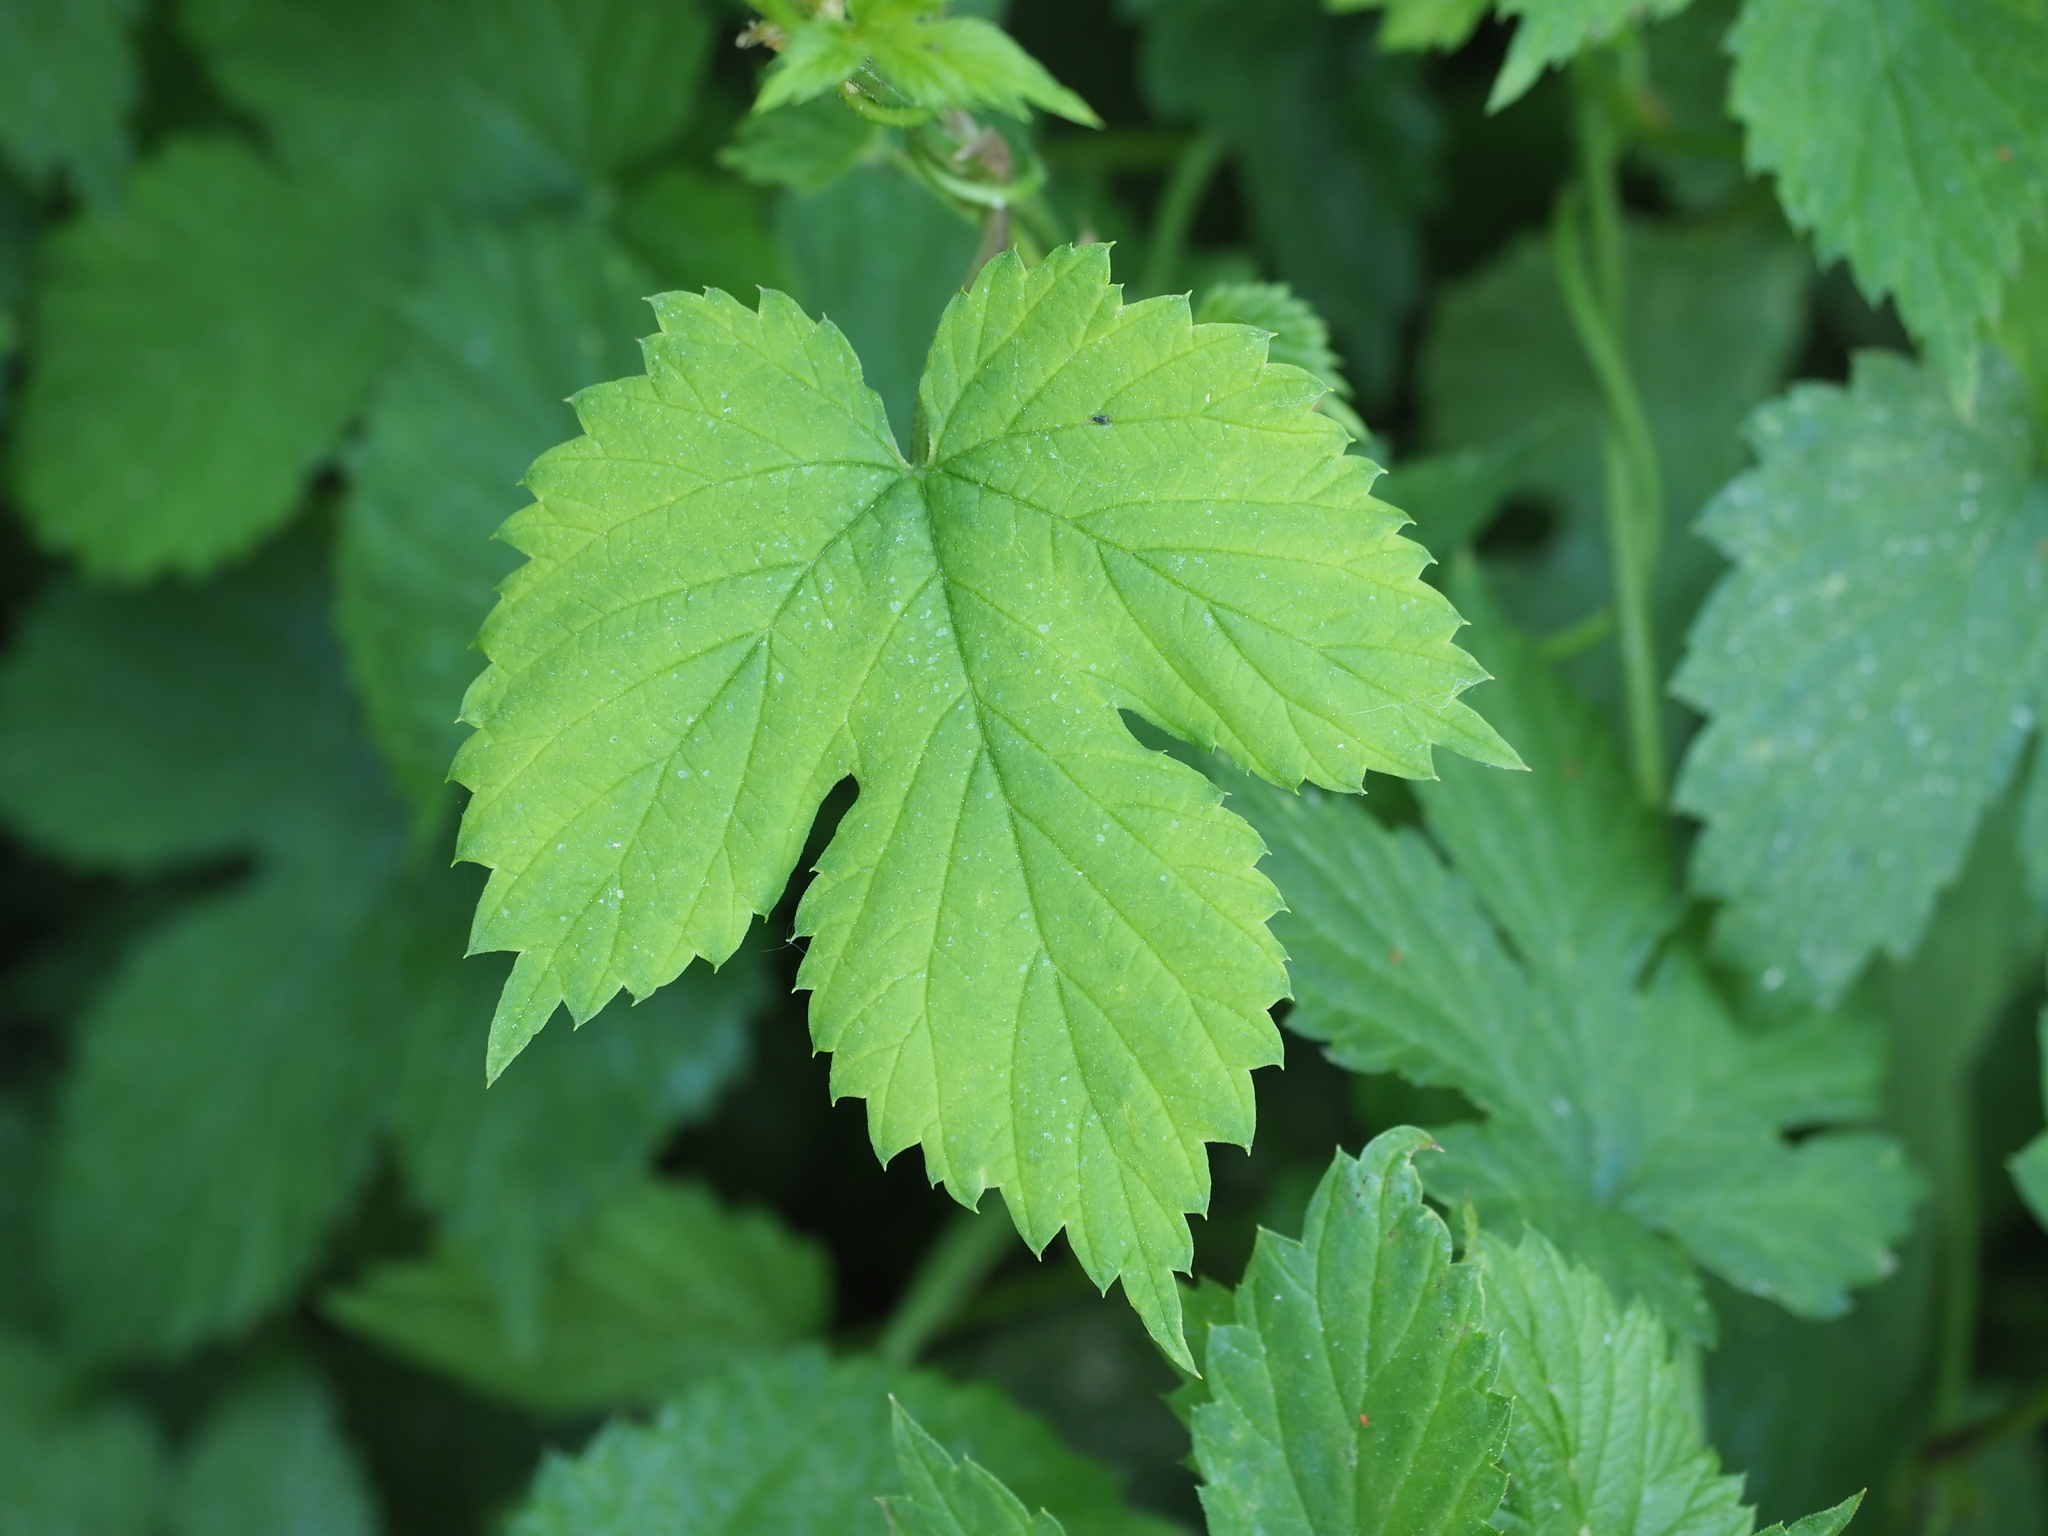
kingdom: Plantae
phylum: Tracheophyta
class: Magnoliopsida
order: Rosales
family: Cannabaceae
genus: Humulus
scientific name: Humulus lupulus
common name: Hop
